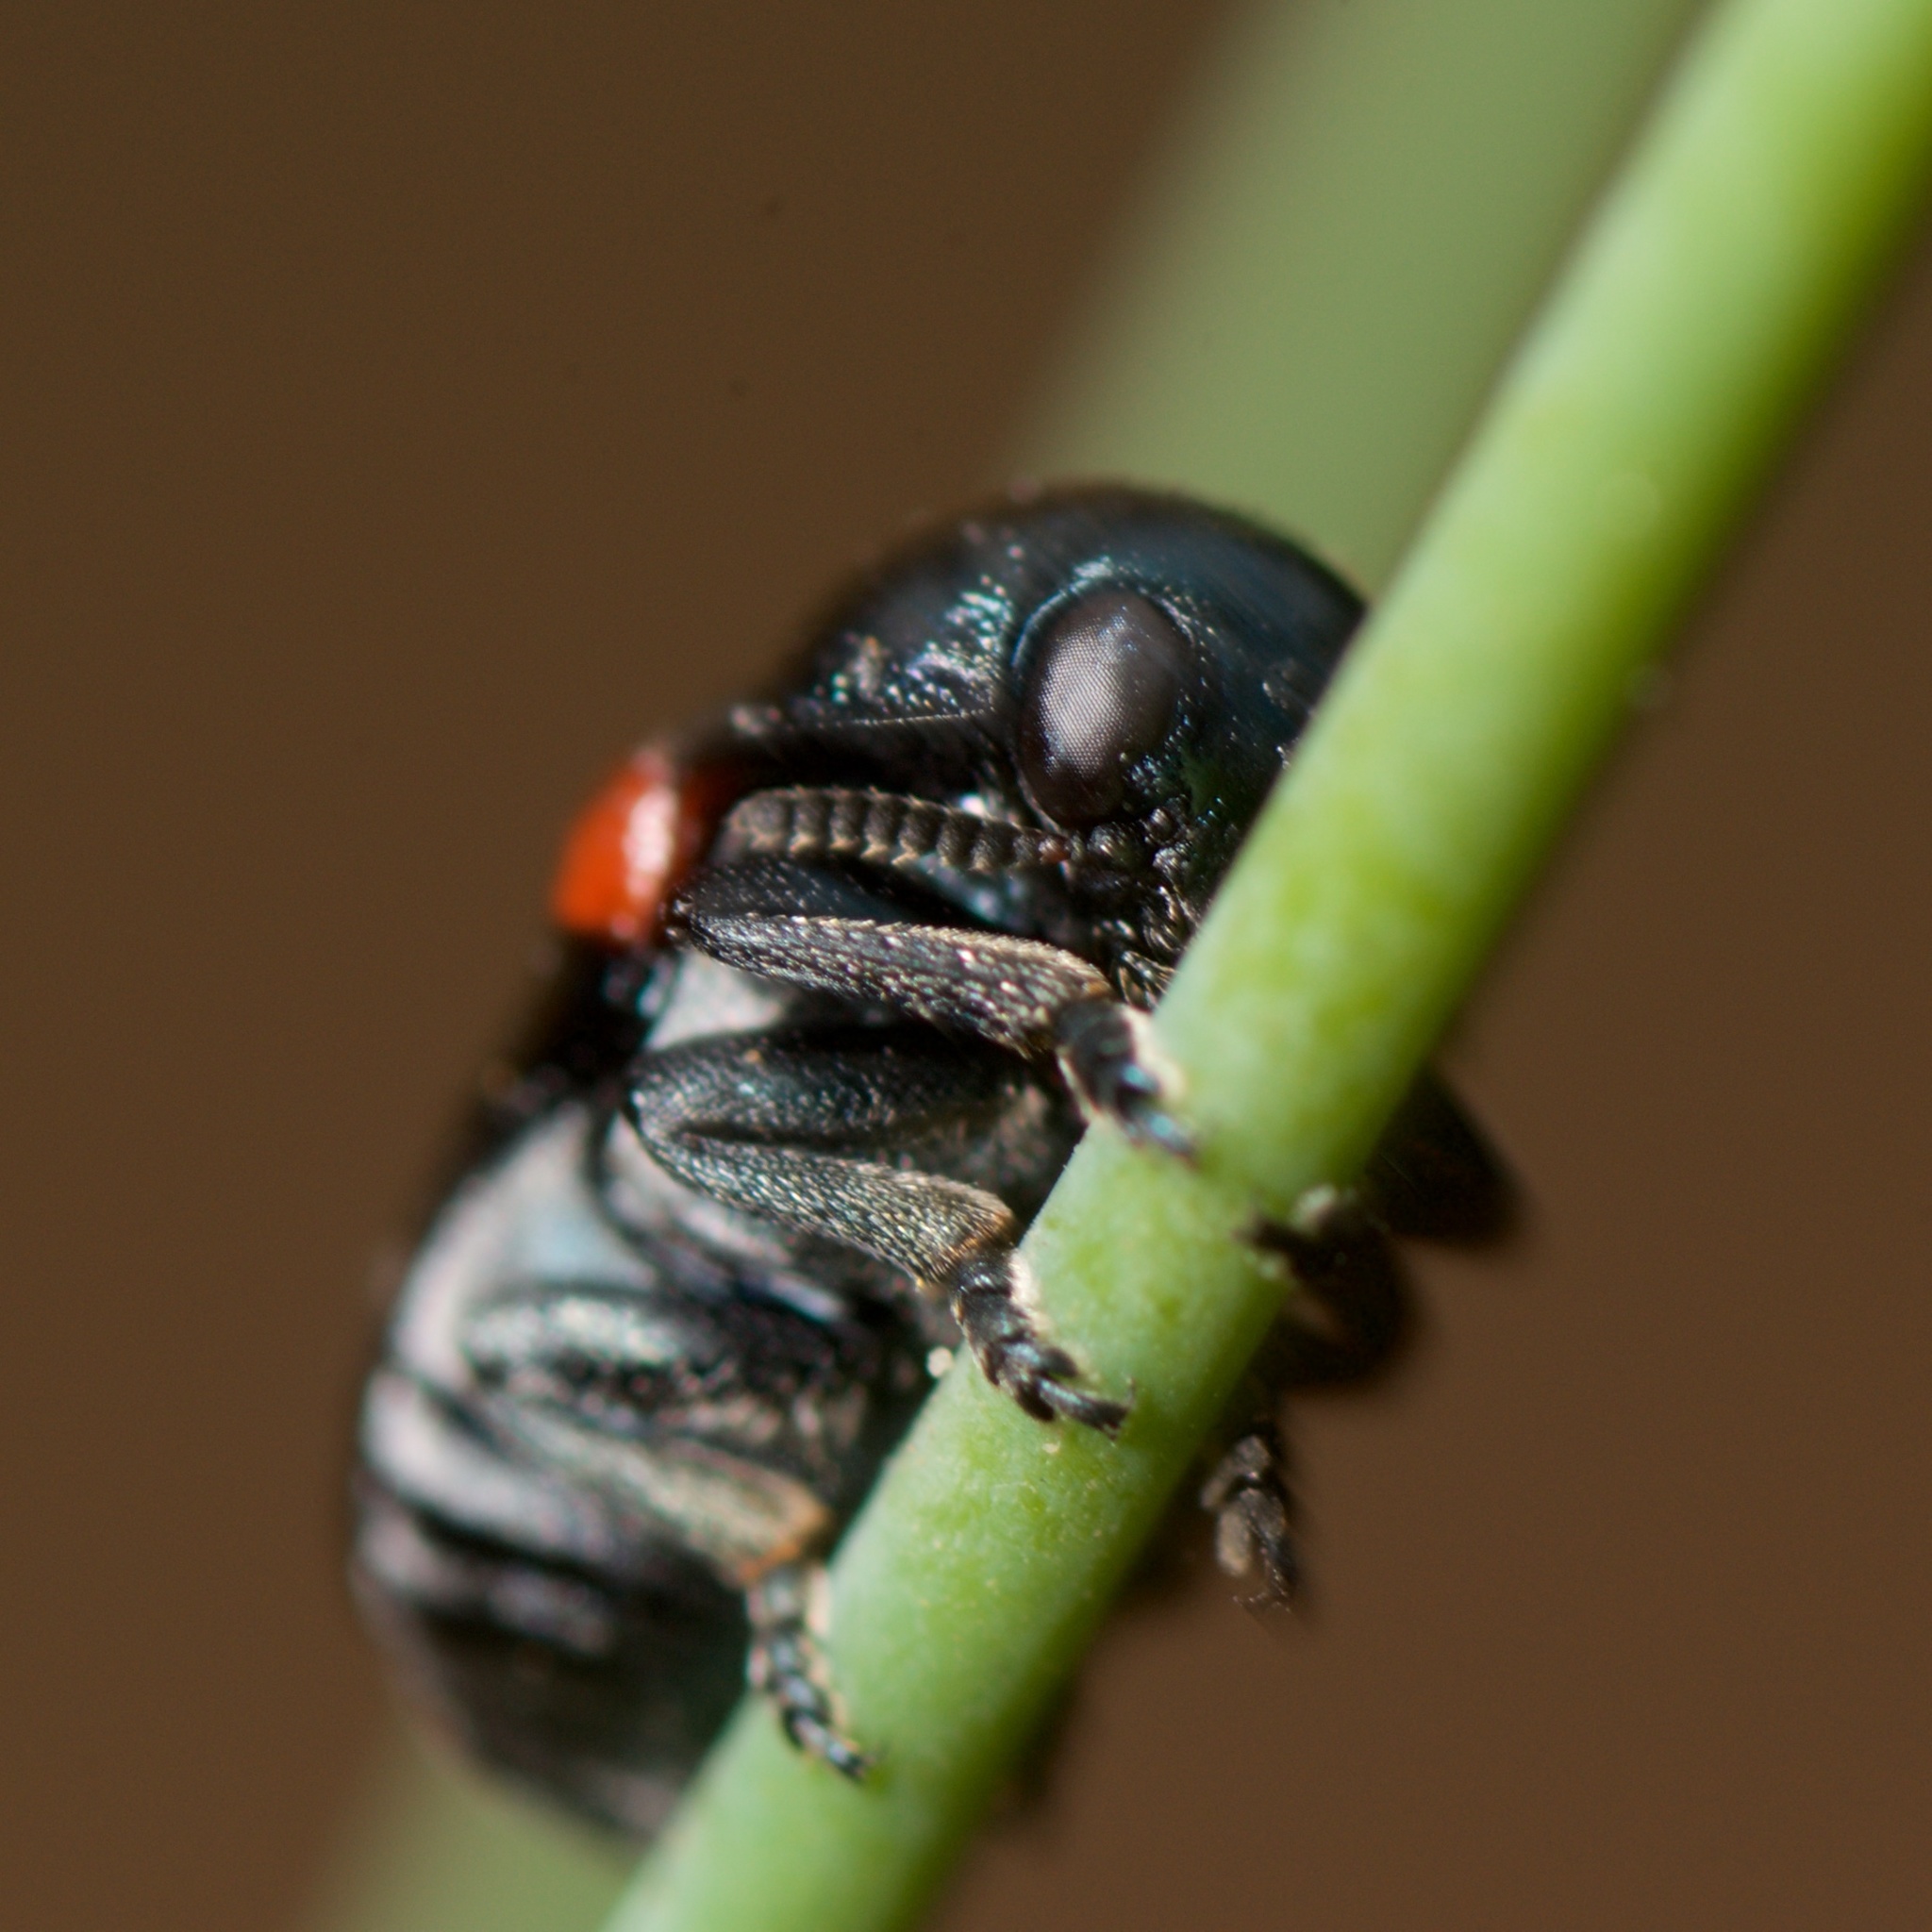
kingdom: Animalia
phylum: Arthropoda
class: Insecta
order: Coleoptera
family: Chrysomelidae
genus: Saxinis
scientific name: Saxinis saucia
